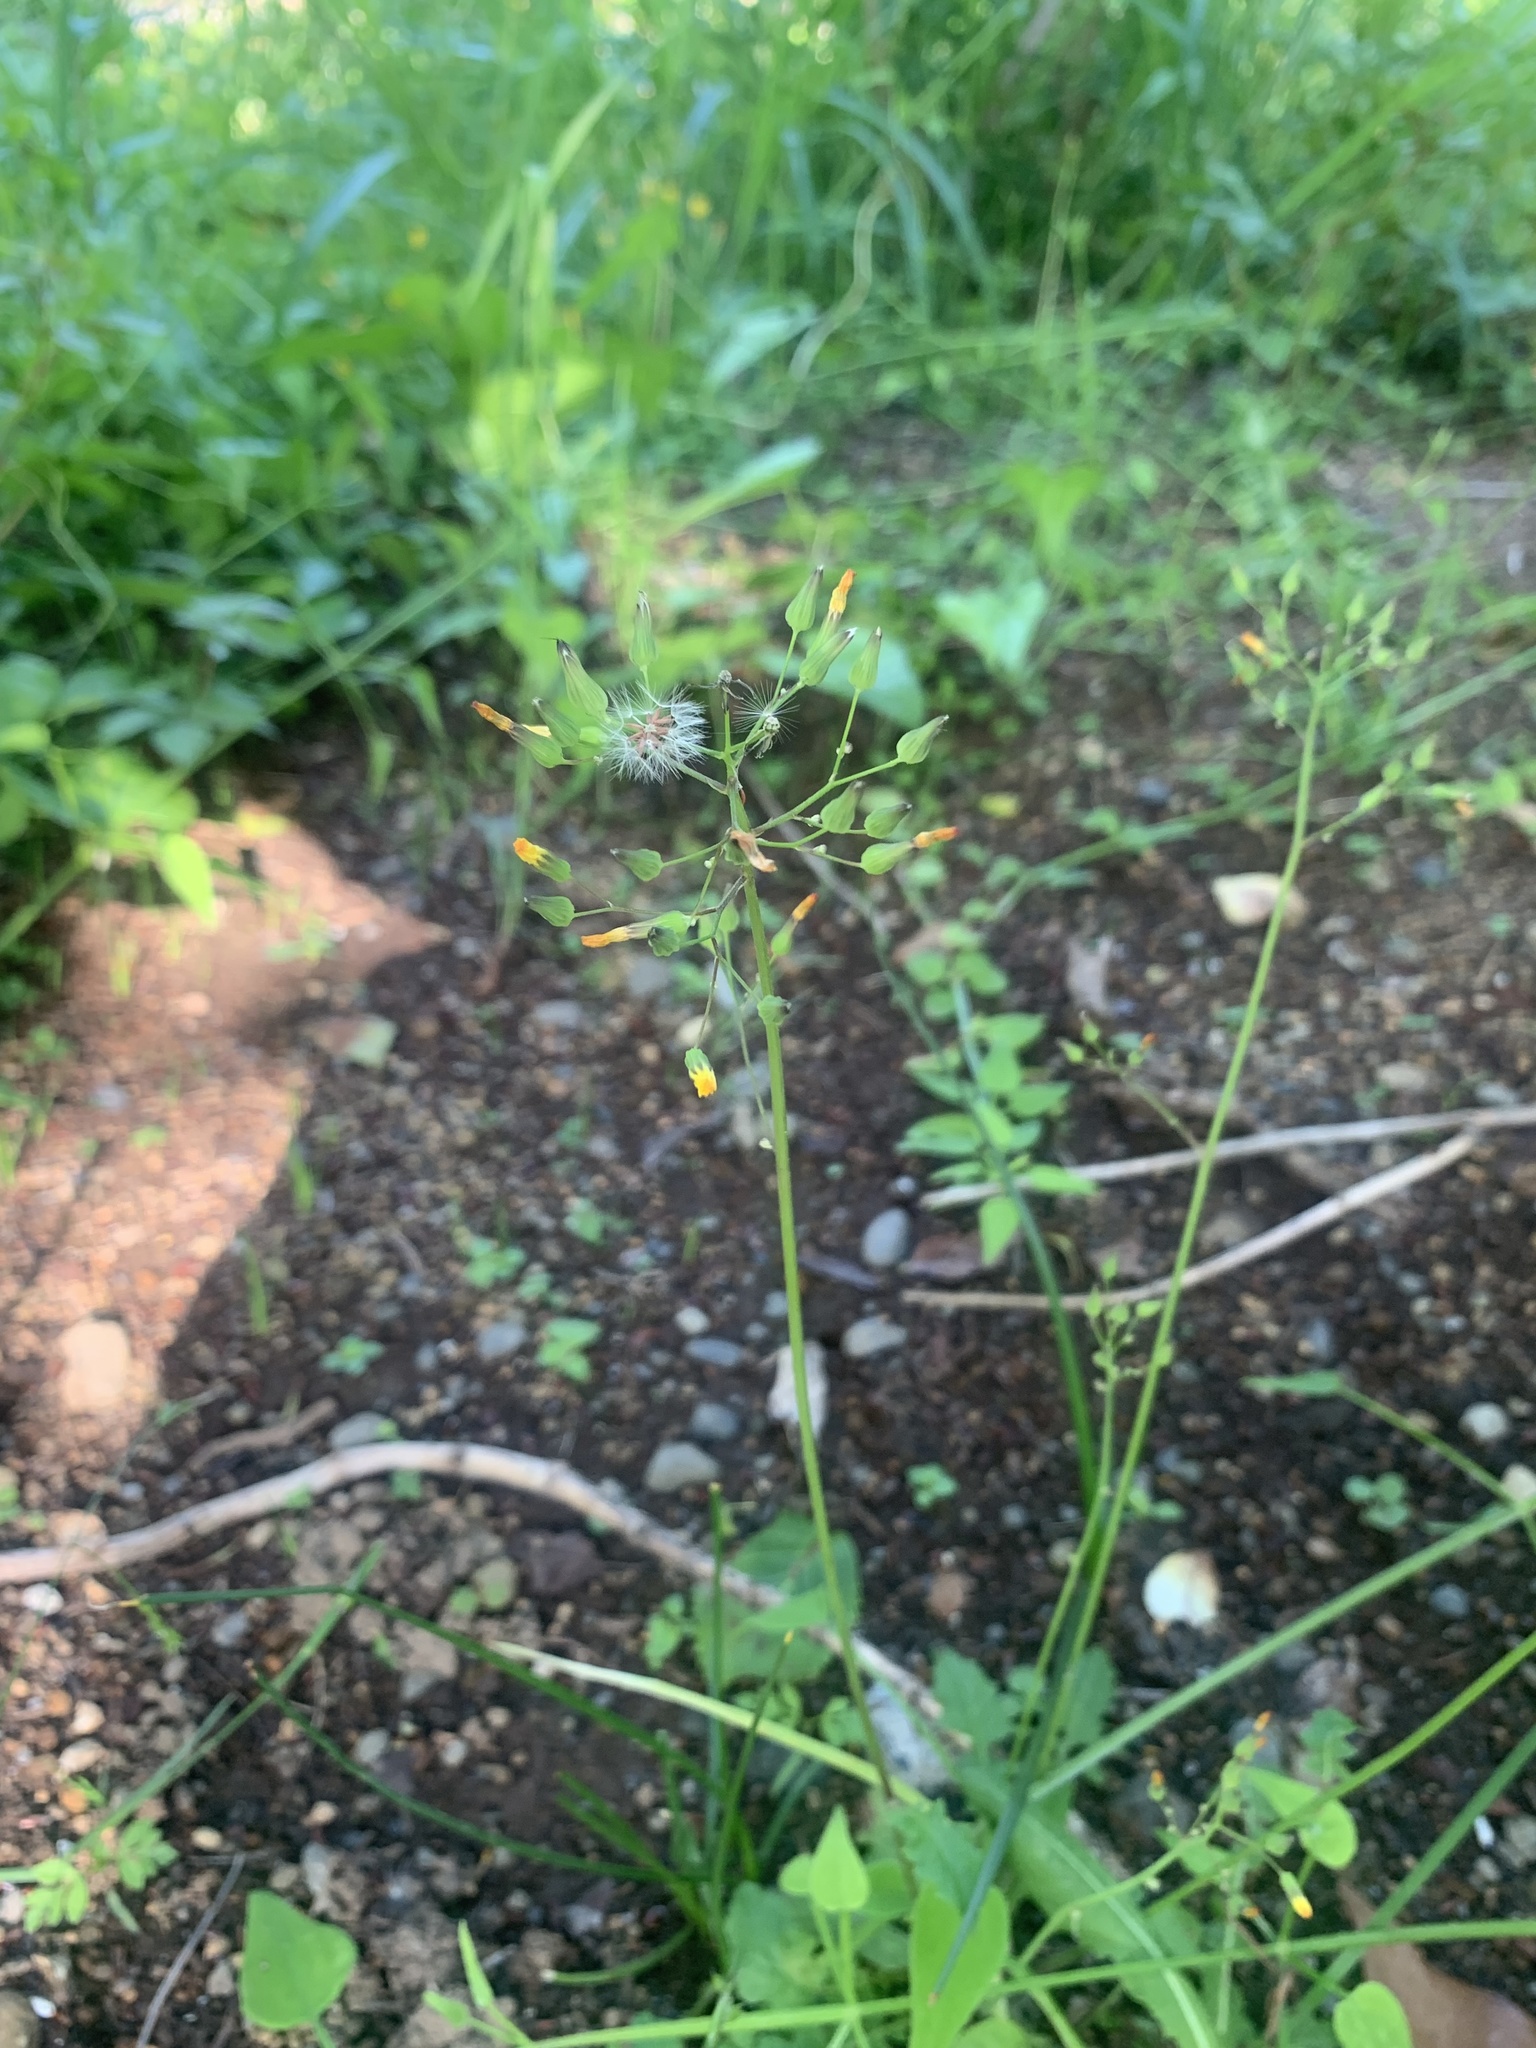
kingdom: Plantae
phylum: Tracheophyta
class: Magnoliopsida
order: Asterales
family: Asteraceae
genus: Youngia
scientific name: Youngia japonica
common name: Oriental false hawksbeard
